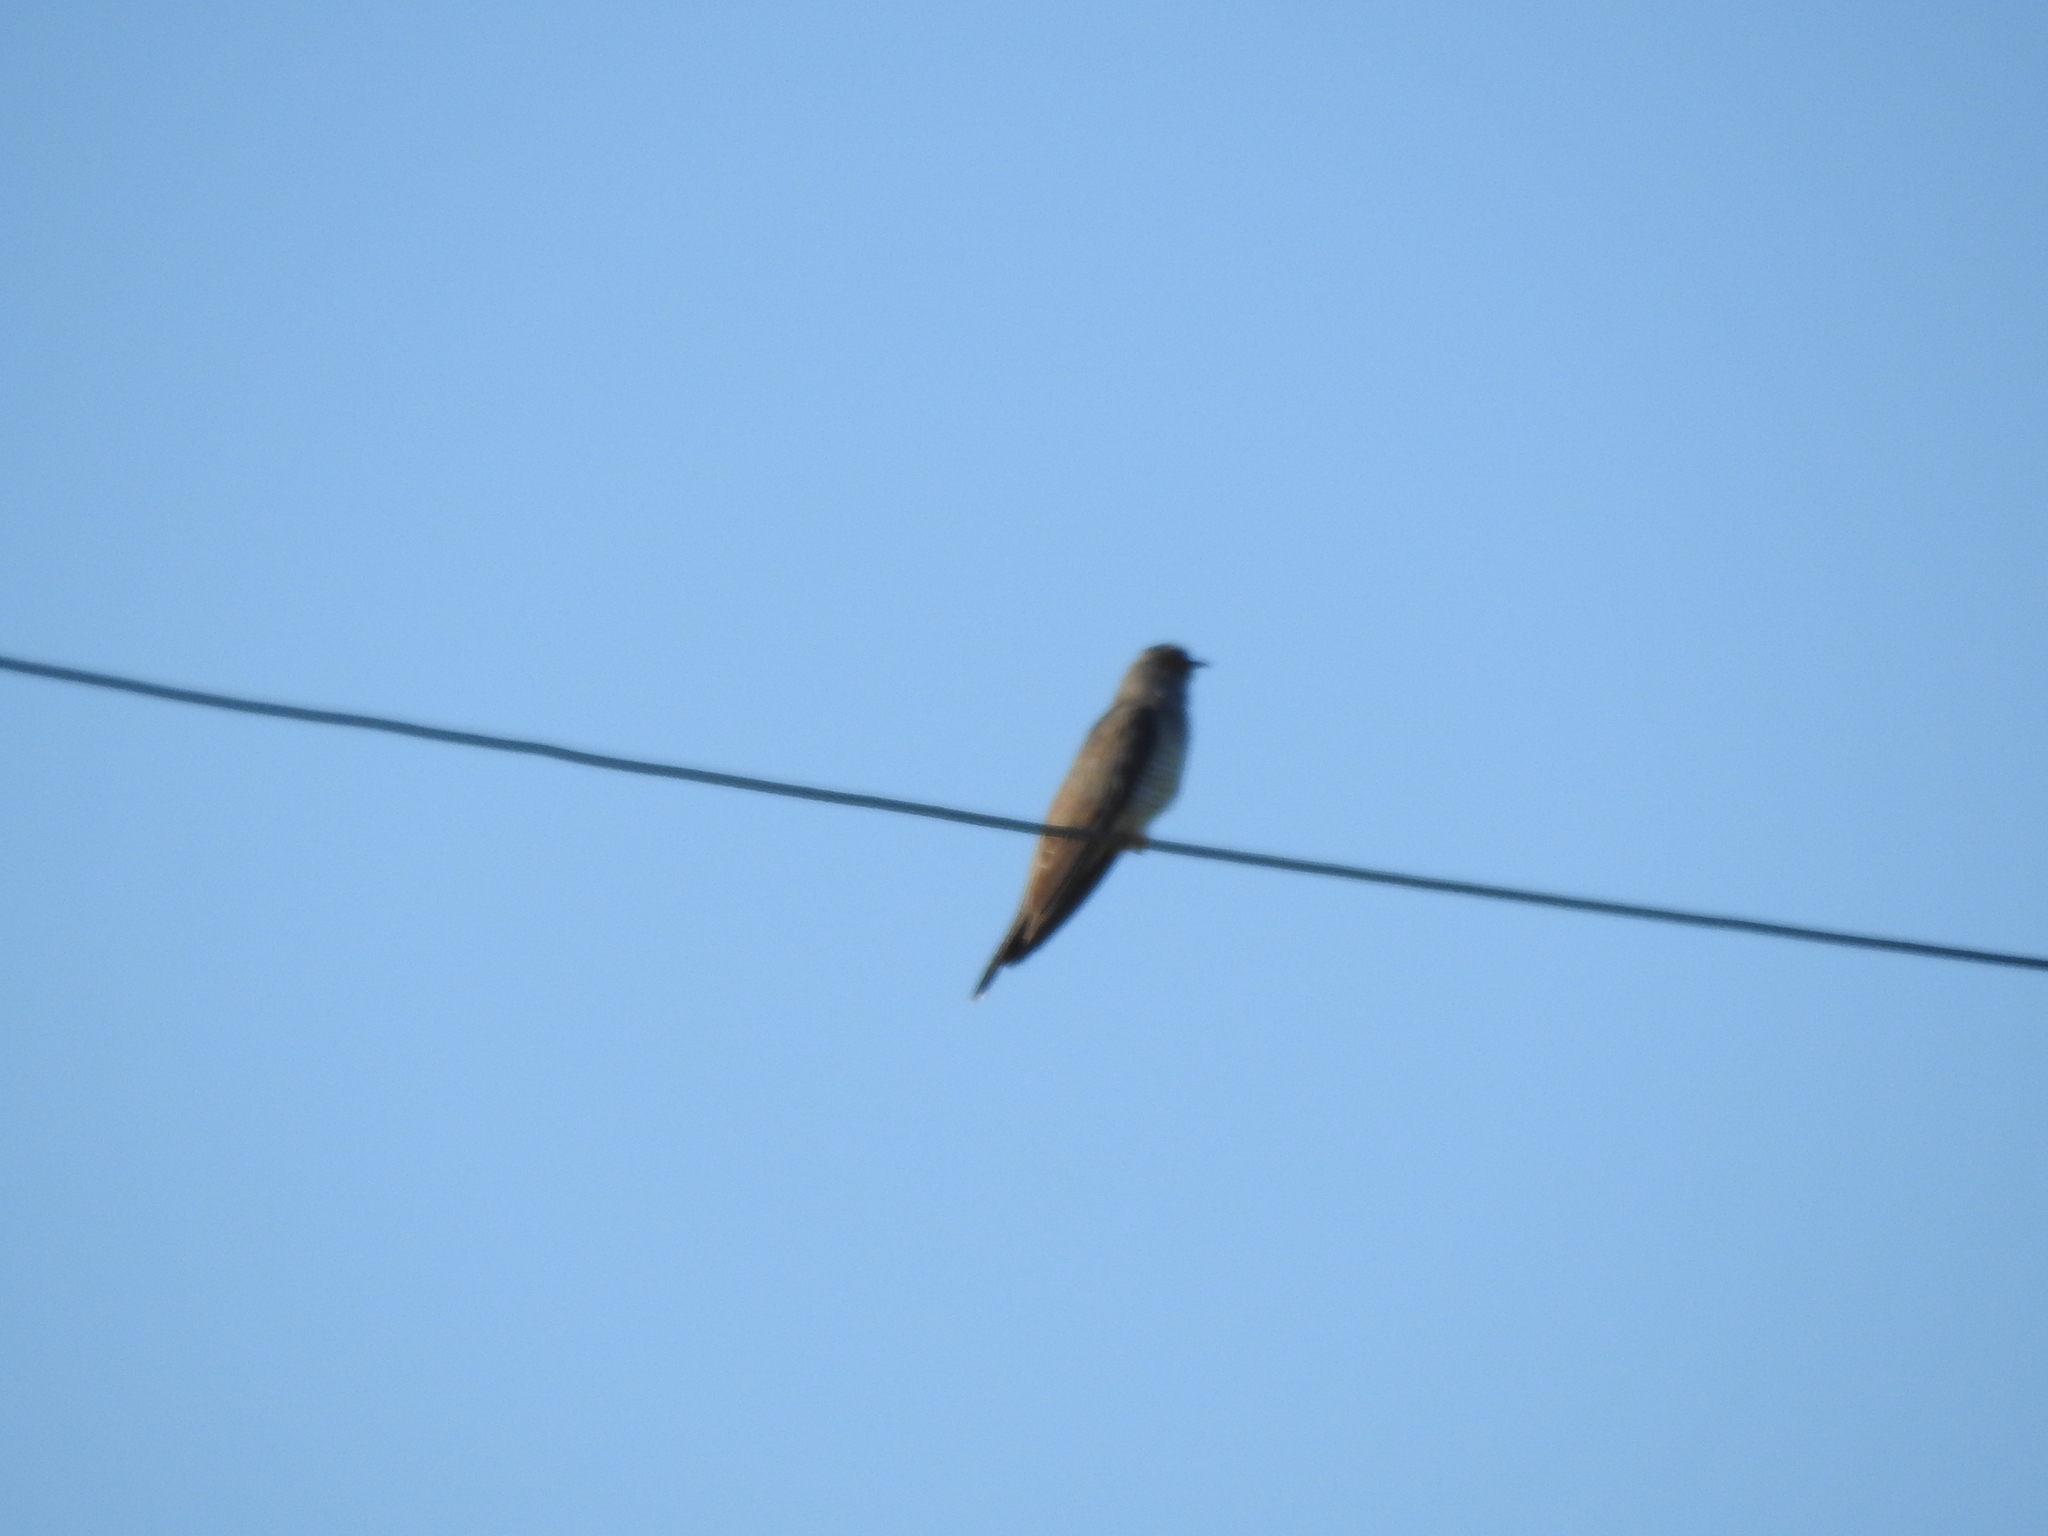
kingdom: Animalia
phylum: Chordata
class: Aves
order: Cuculiformes
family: Cuculidae
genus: Cuculus
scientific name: Cuculus canorus
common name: Common cuckoo
